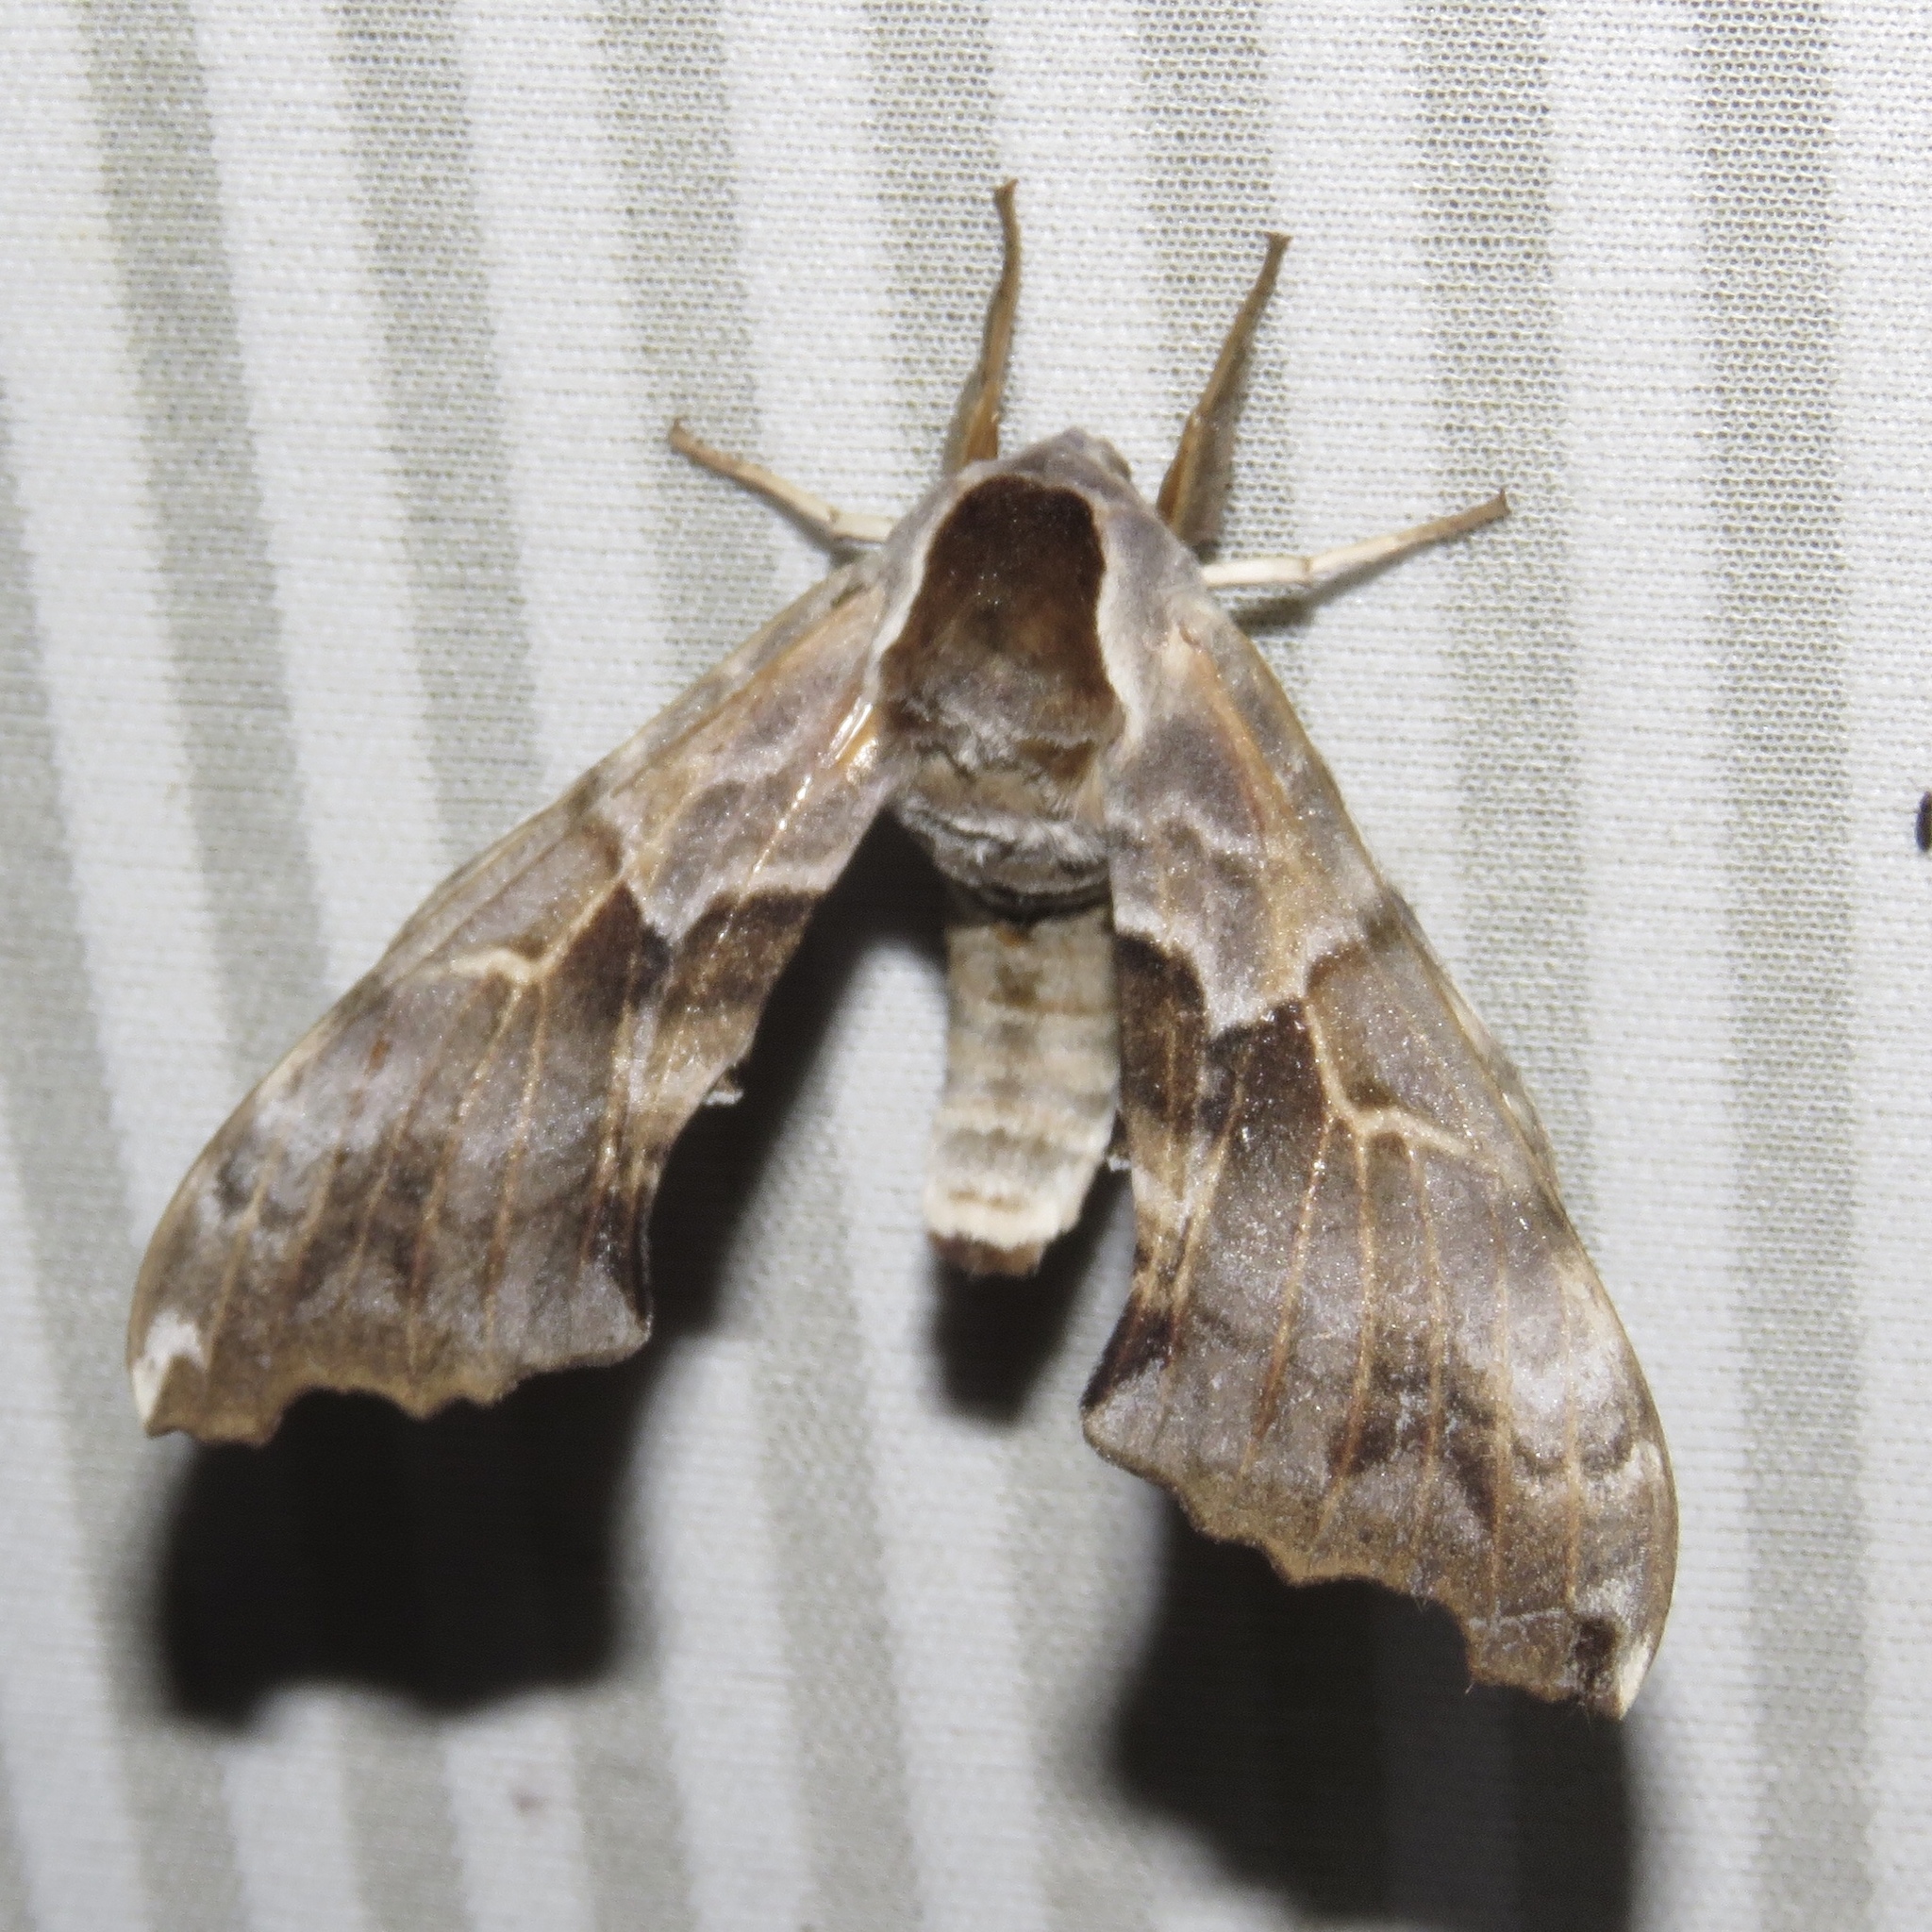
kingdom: Animalia
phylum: Arthropoda
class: Insecta
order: Lepidoptera
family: Sphingidae
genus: Smerinthus
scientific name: Smerinthus cerisyi
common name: Cerisy's sphinx moth
